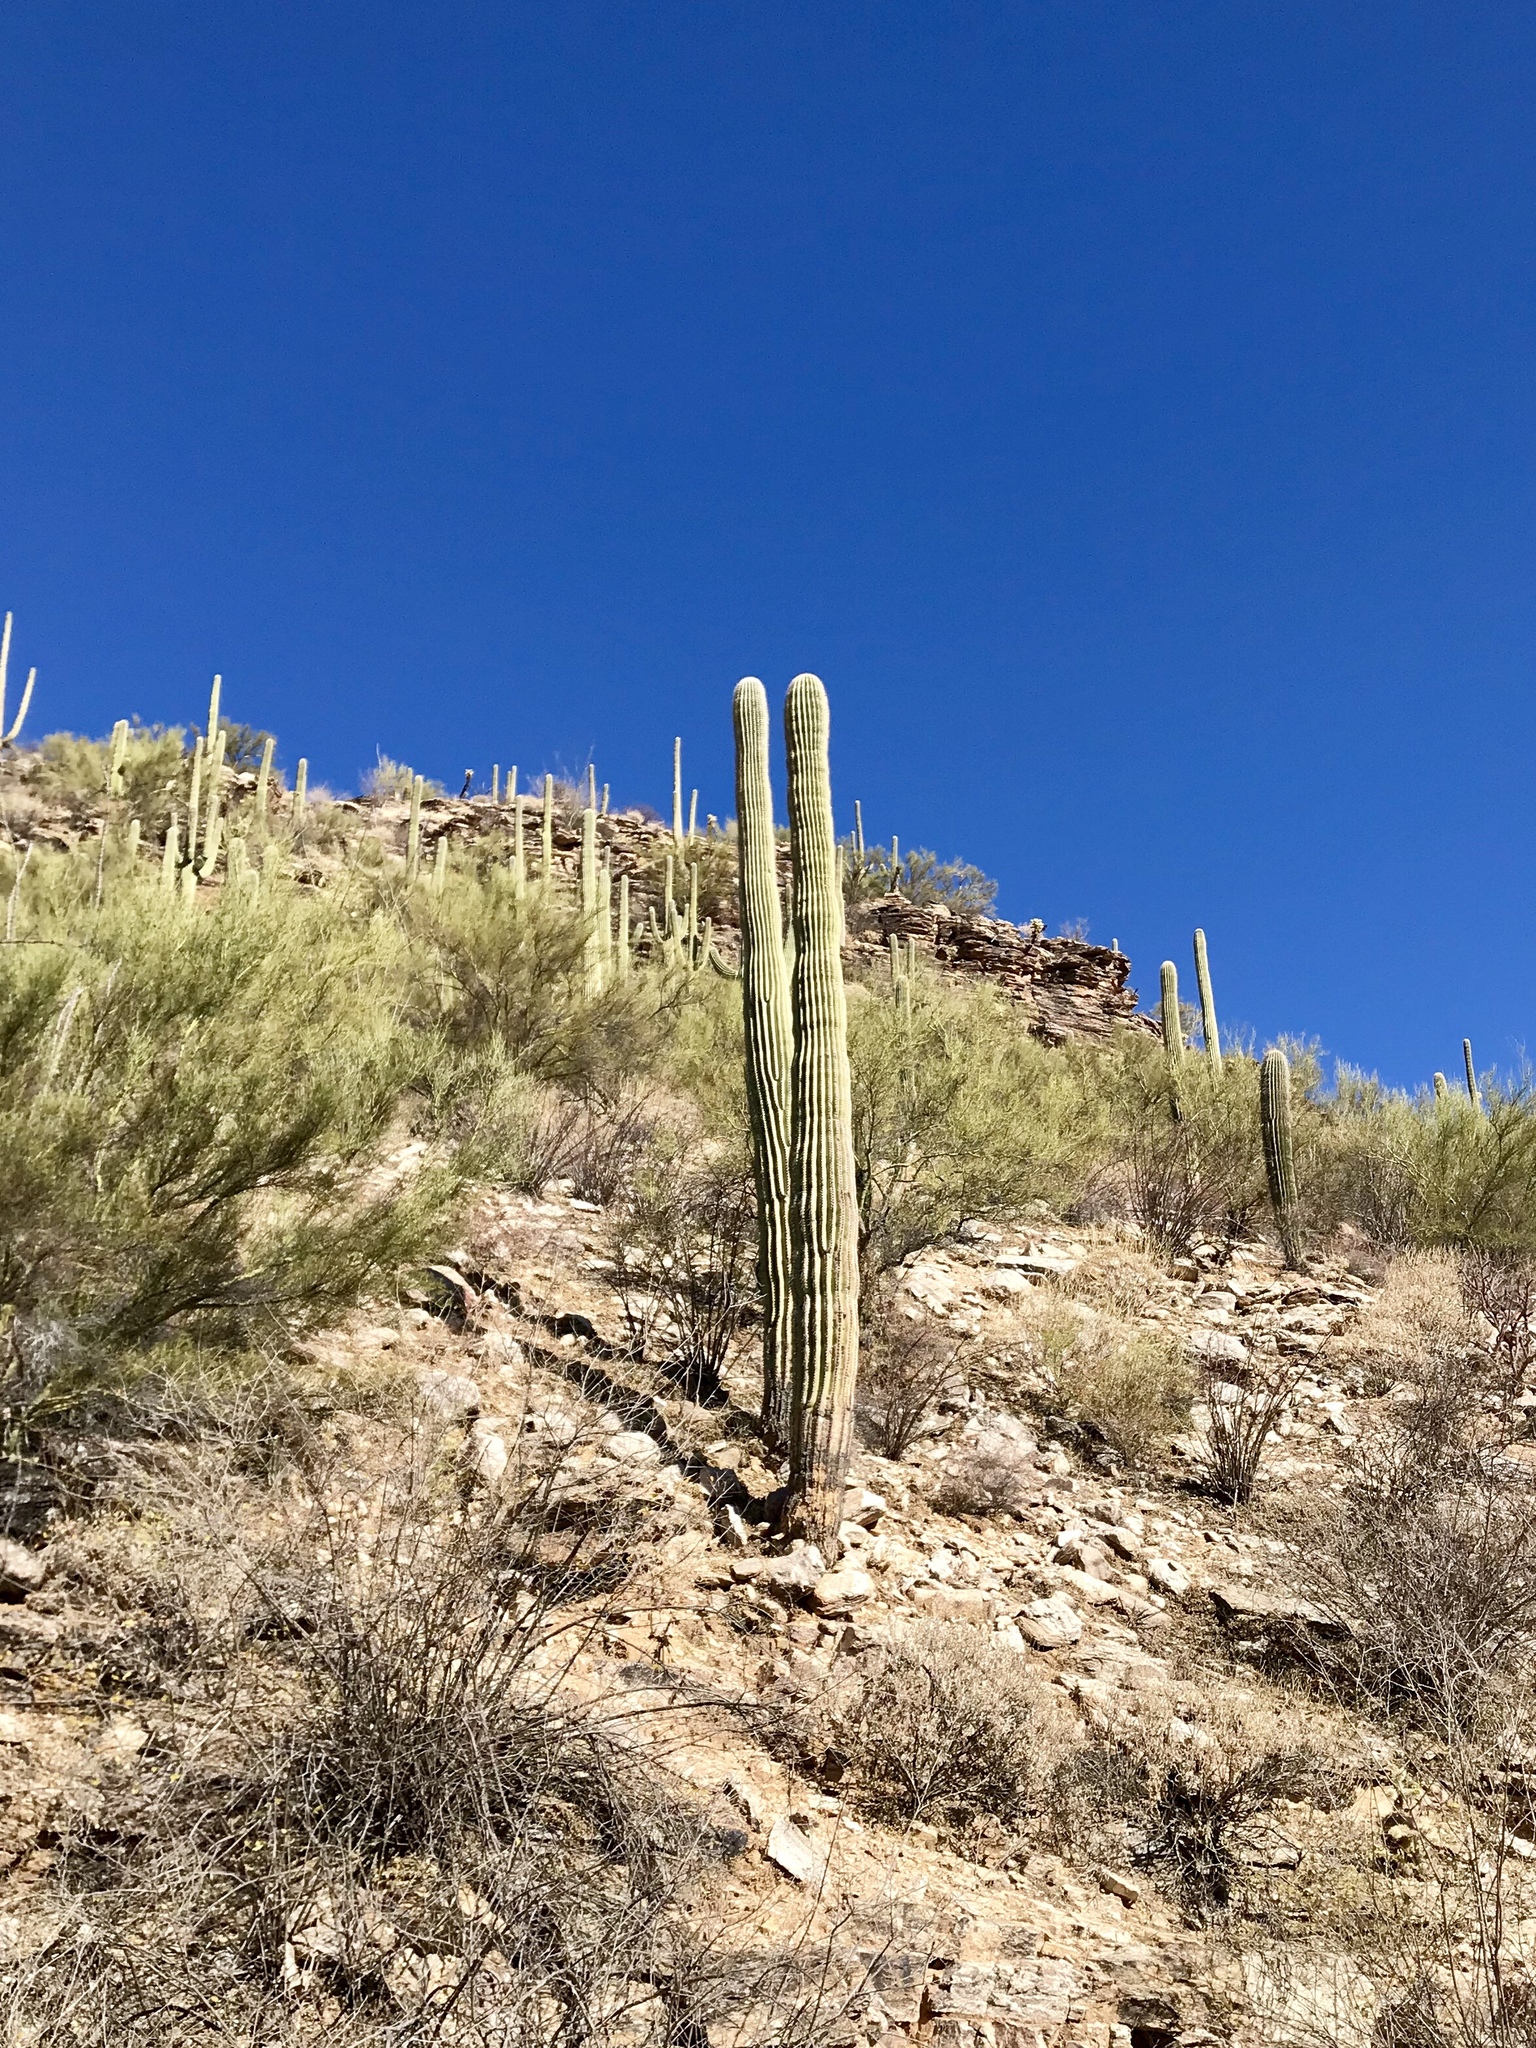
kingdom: Plantae
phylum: Tracheophyta
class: Magnoliopsida
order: Caryophyllales
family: Cactaceae
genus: Carnegiea
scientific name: Carnegiea gigantea
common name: Saguaro
